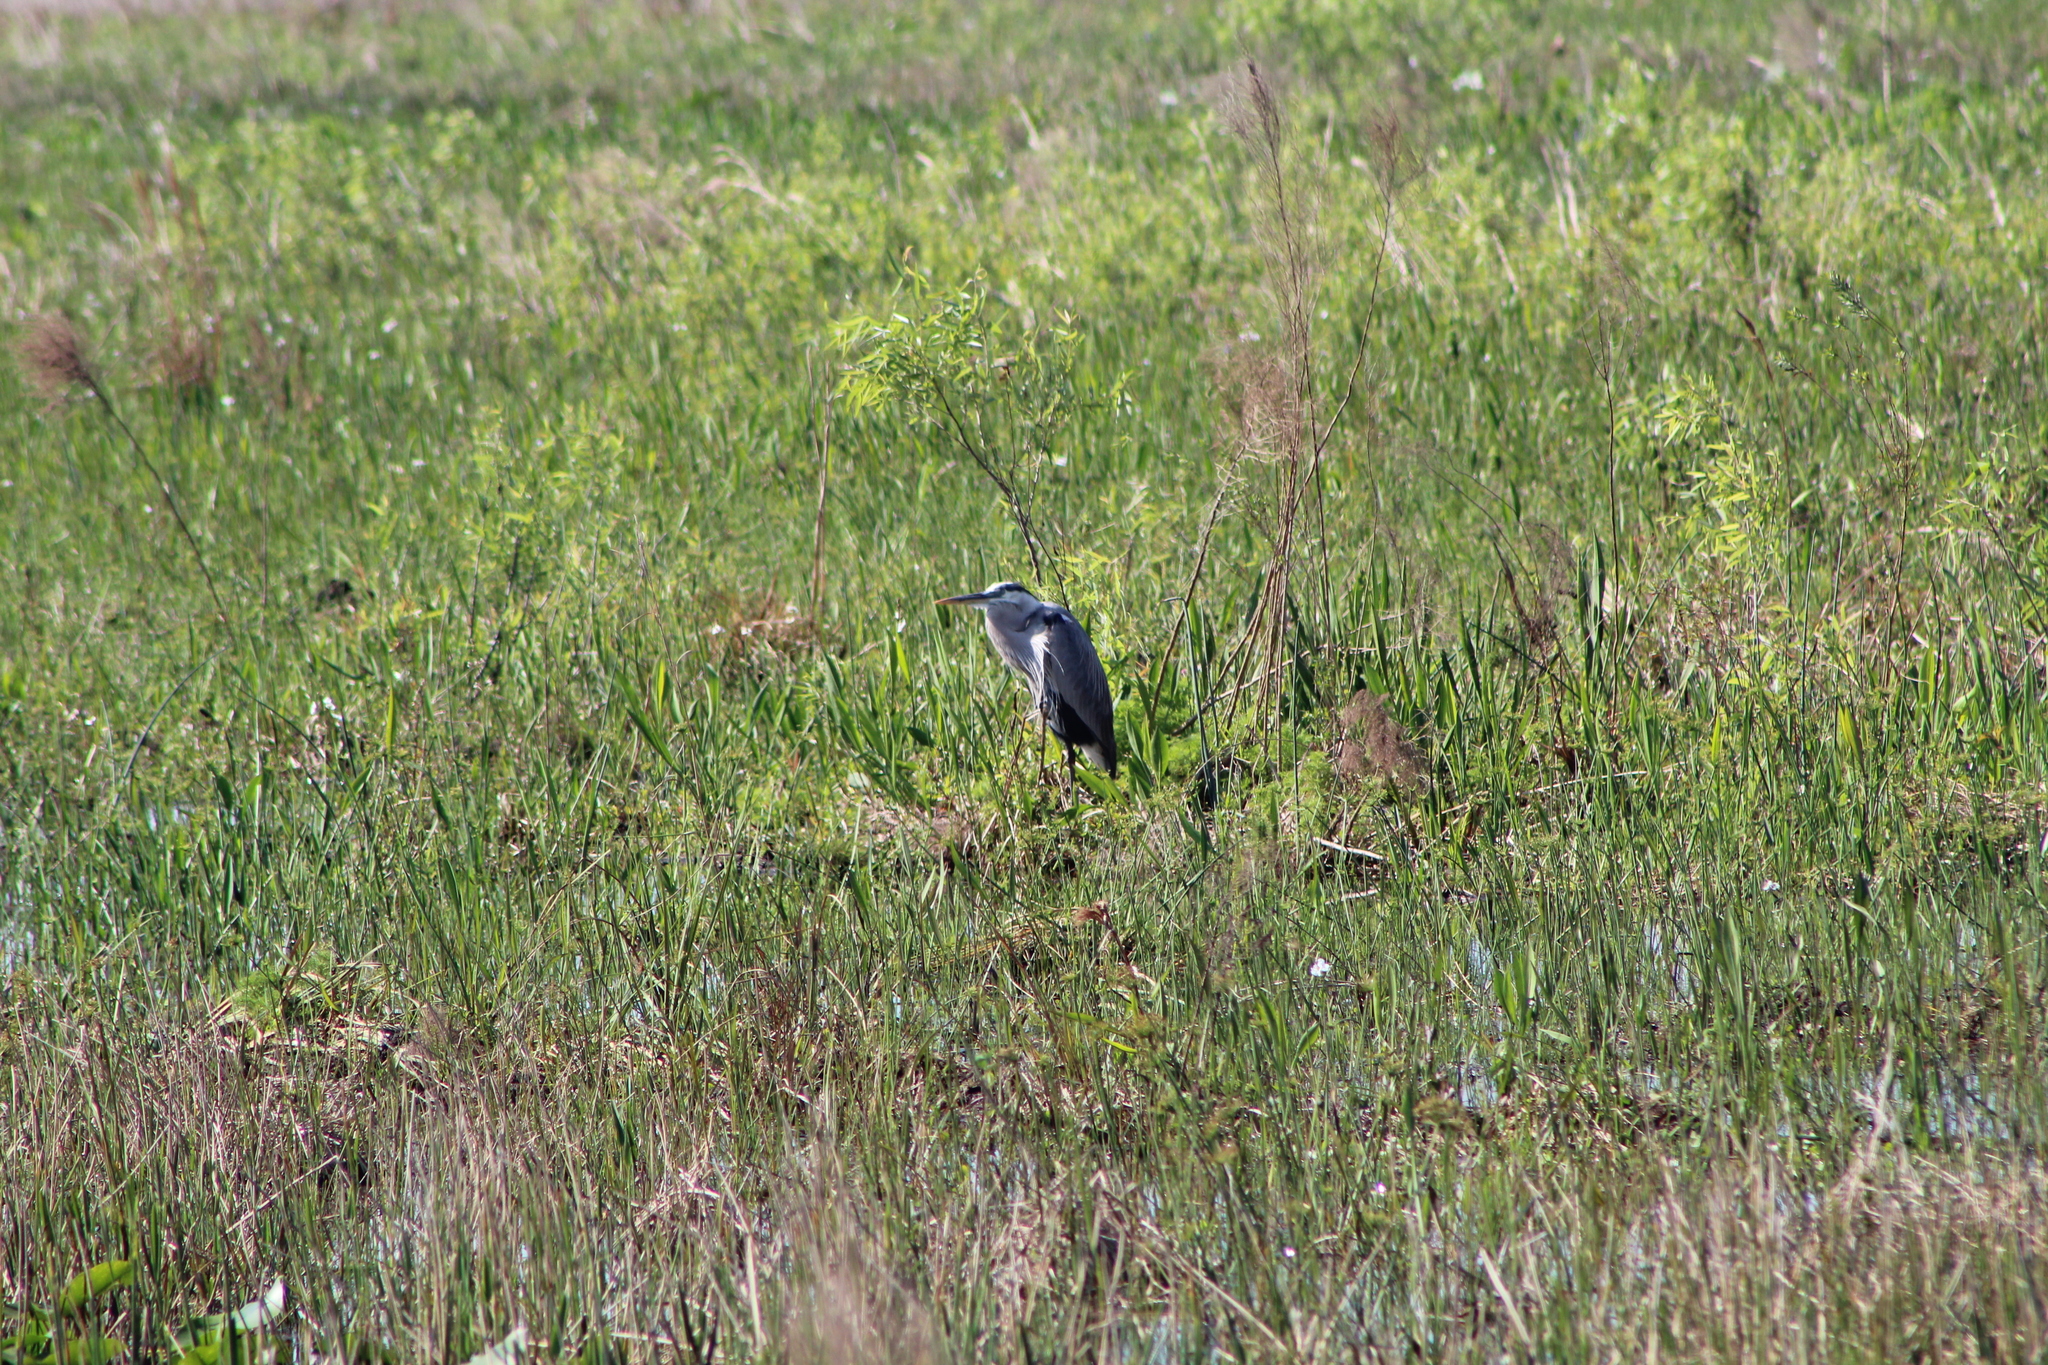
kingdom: Animalia
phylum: Chordata
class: Aves
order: Pelecaniformes
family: Ardeidae
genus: Ardea
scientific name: Ardea herodias
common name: Great blue heron
